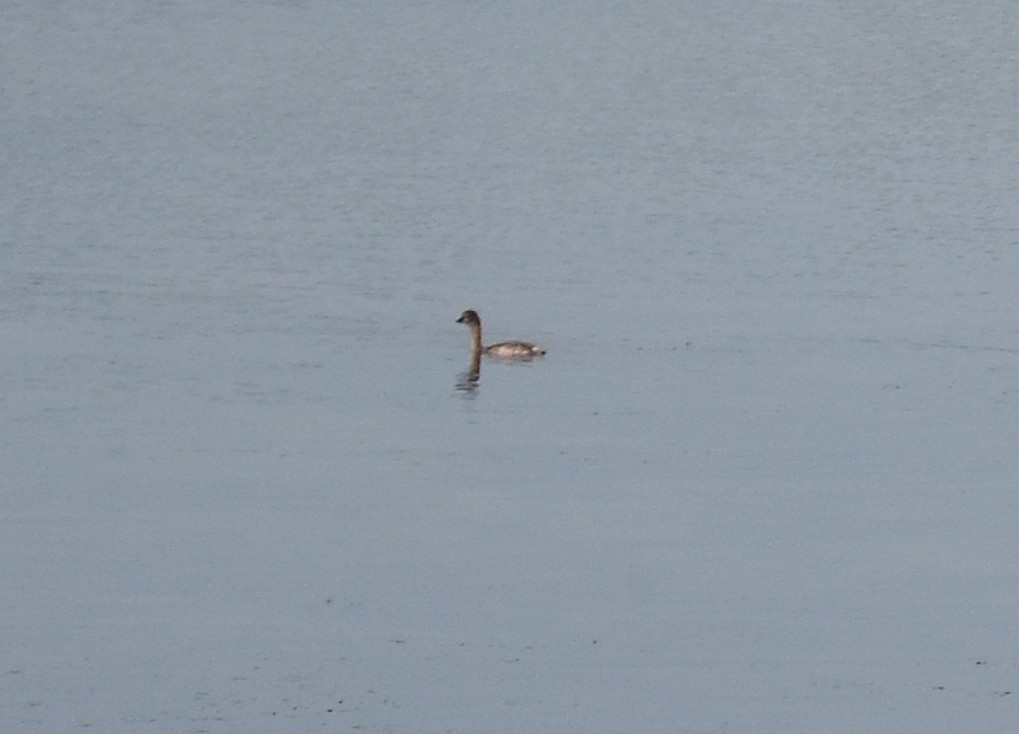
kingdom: Animalia
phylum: Chordata
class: Aves
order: Podicipediformes
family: Podicipedidae
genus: Tachybaptus
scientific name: Tachybaptus ruficollis
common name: Little grebe
